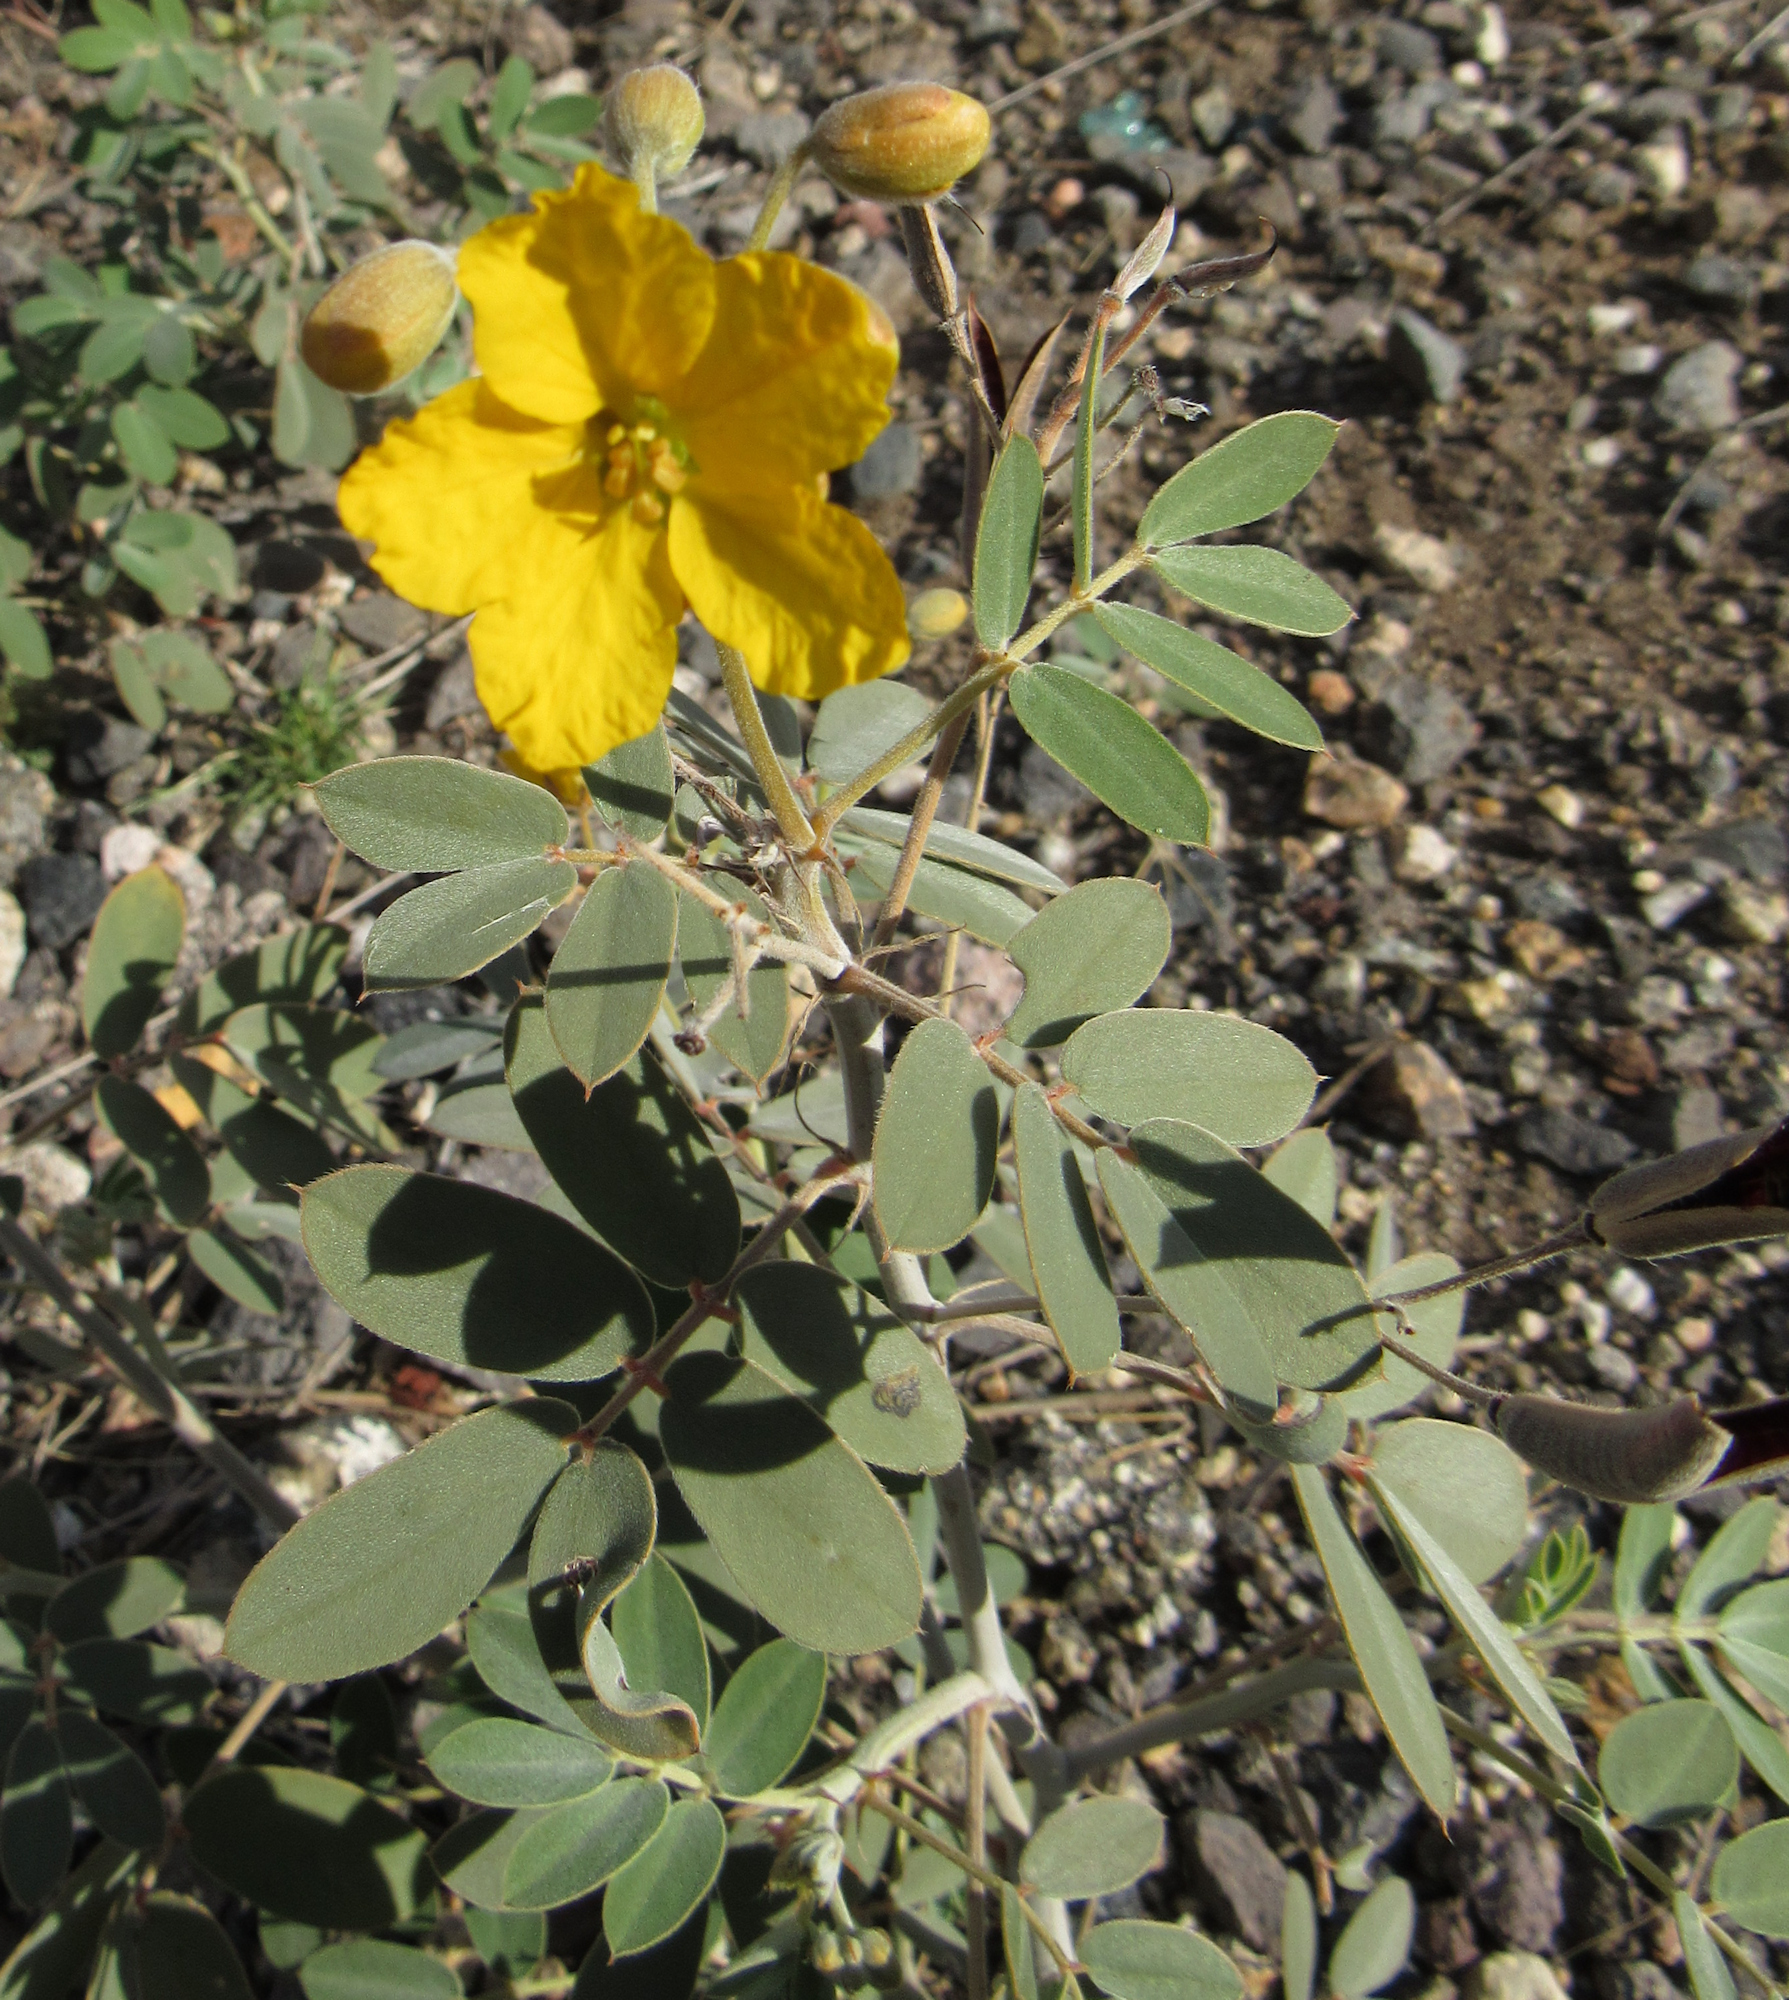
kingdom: Plantae
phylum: Tracheophyta
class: Magnoliopsida
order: Fabales
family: Fabaceae
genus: Senna
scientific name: Senna covesii
